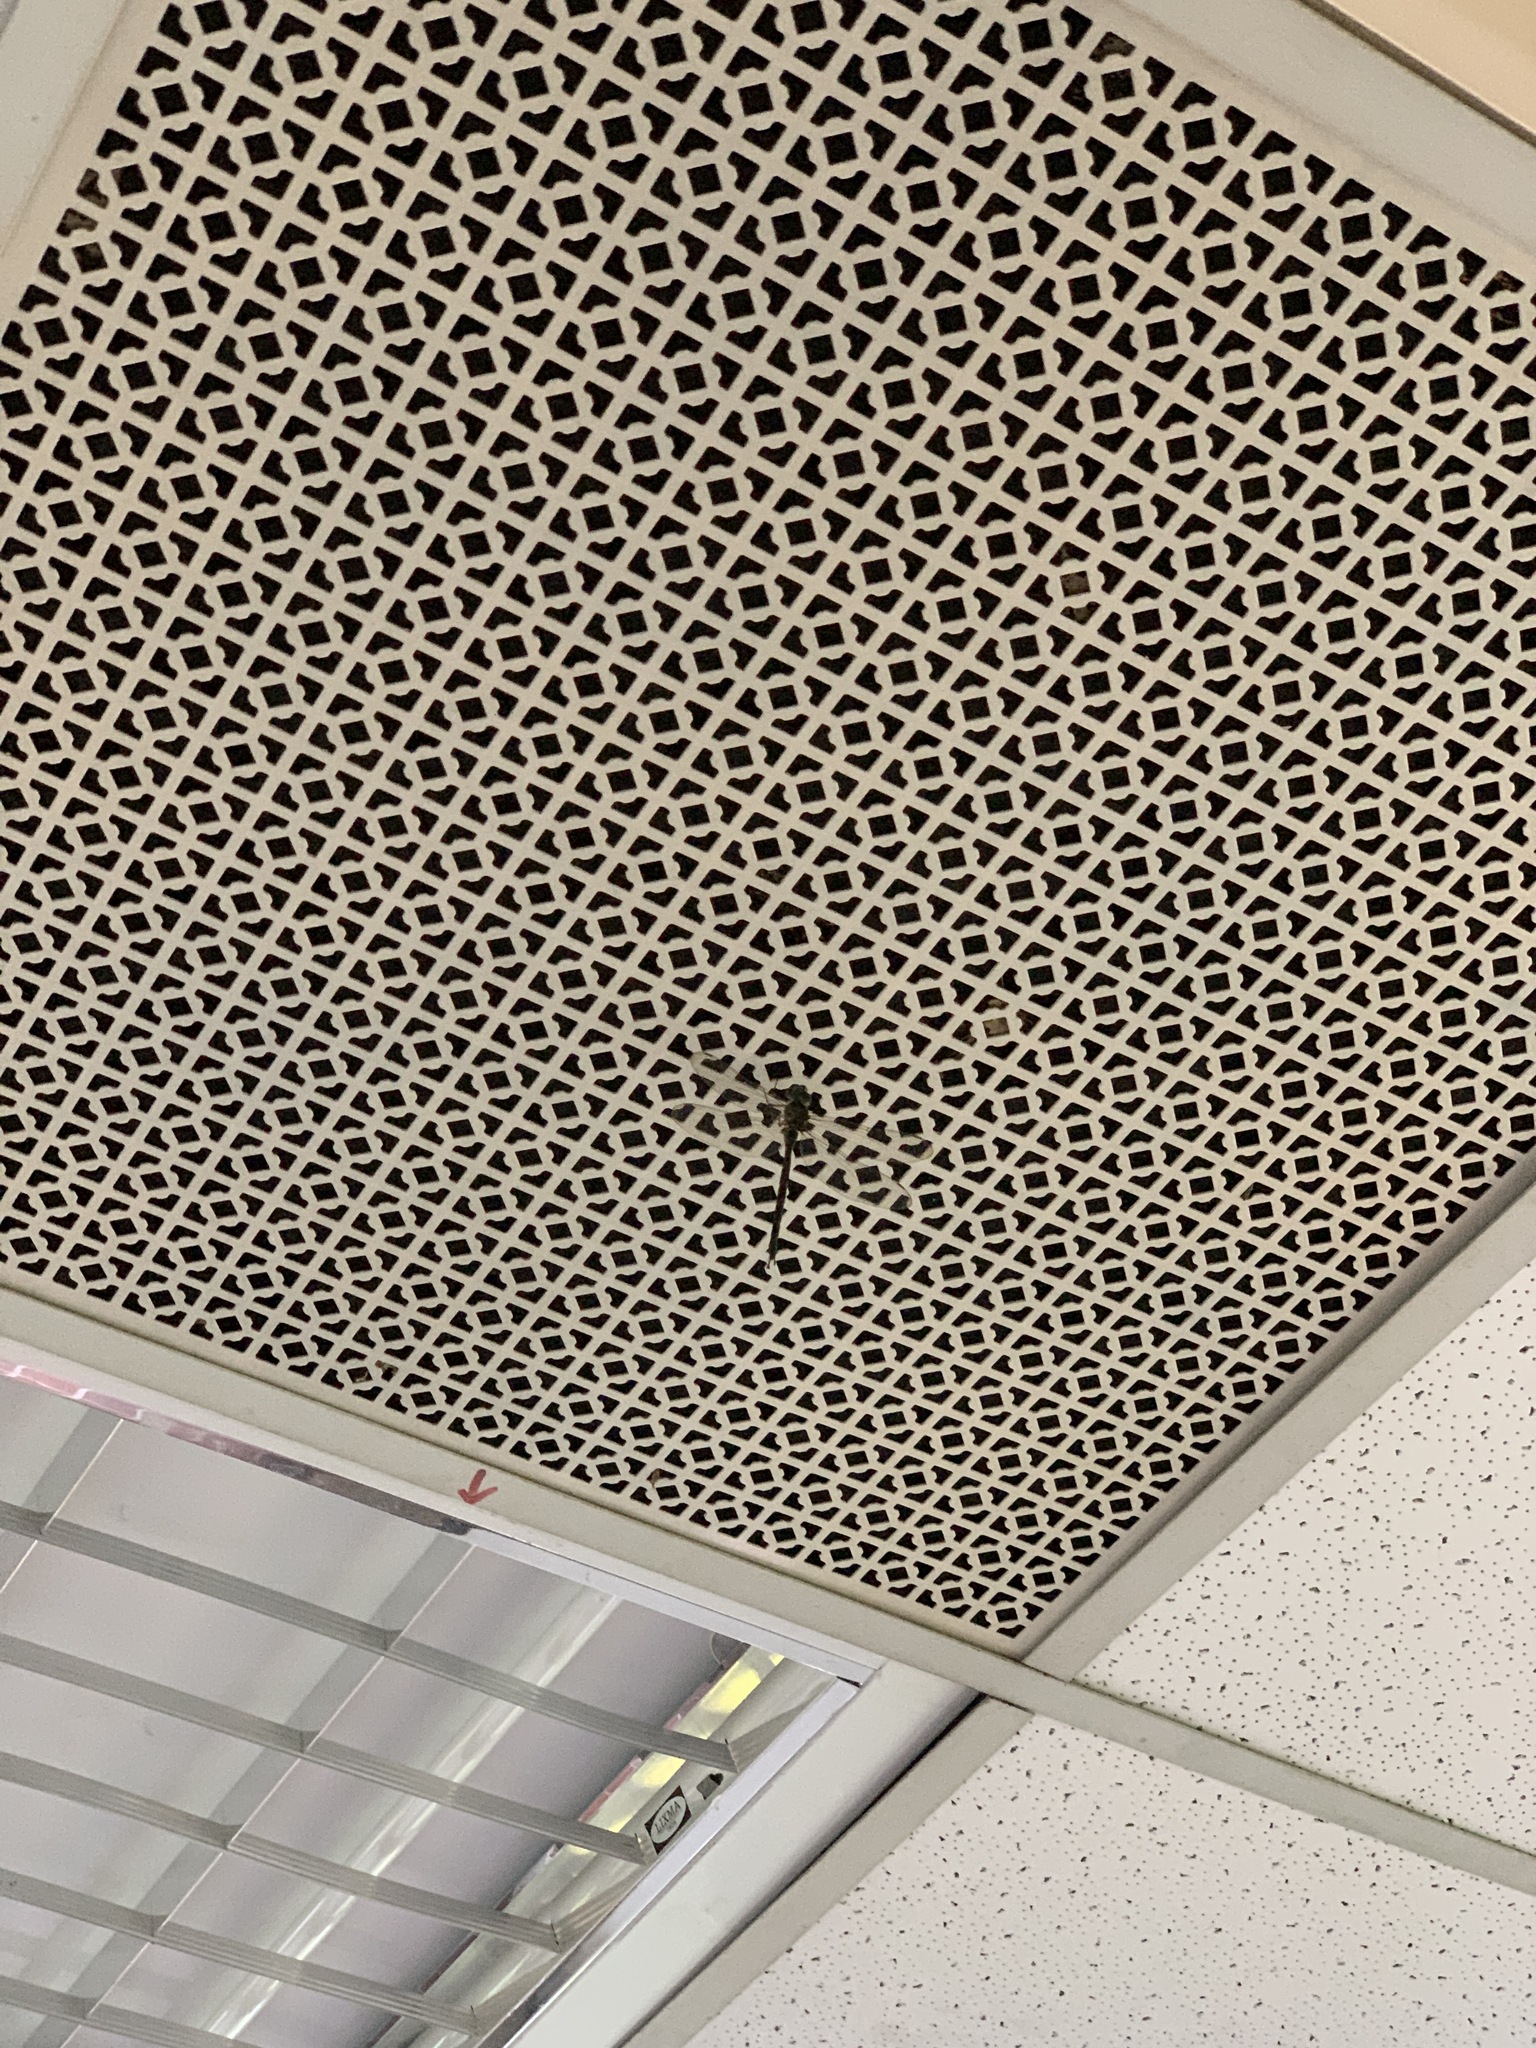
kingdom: Animalia
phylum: Arthropoda
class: Insecta
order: Odonata
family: Aeshnidae
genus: Gynacantha
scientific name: Gynacantha subinterrupta
